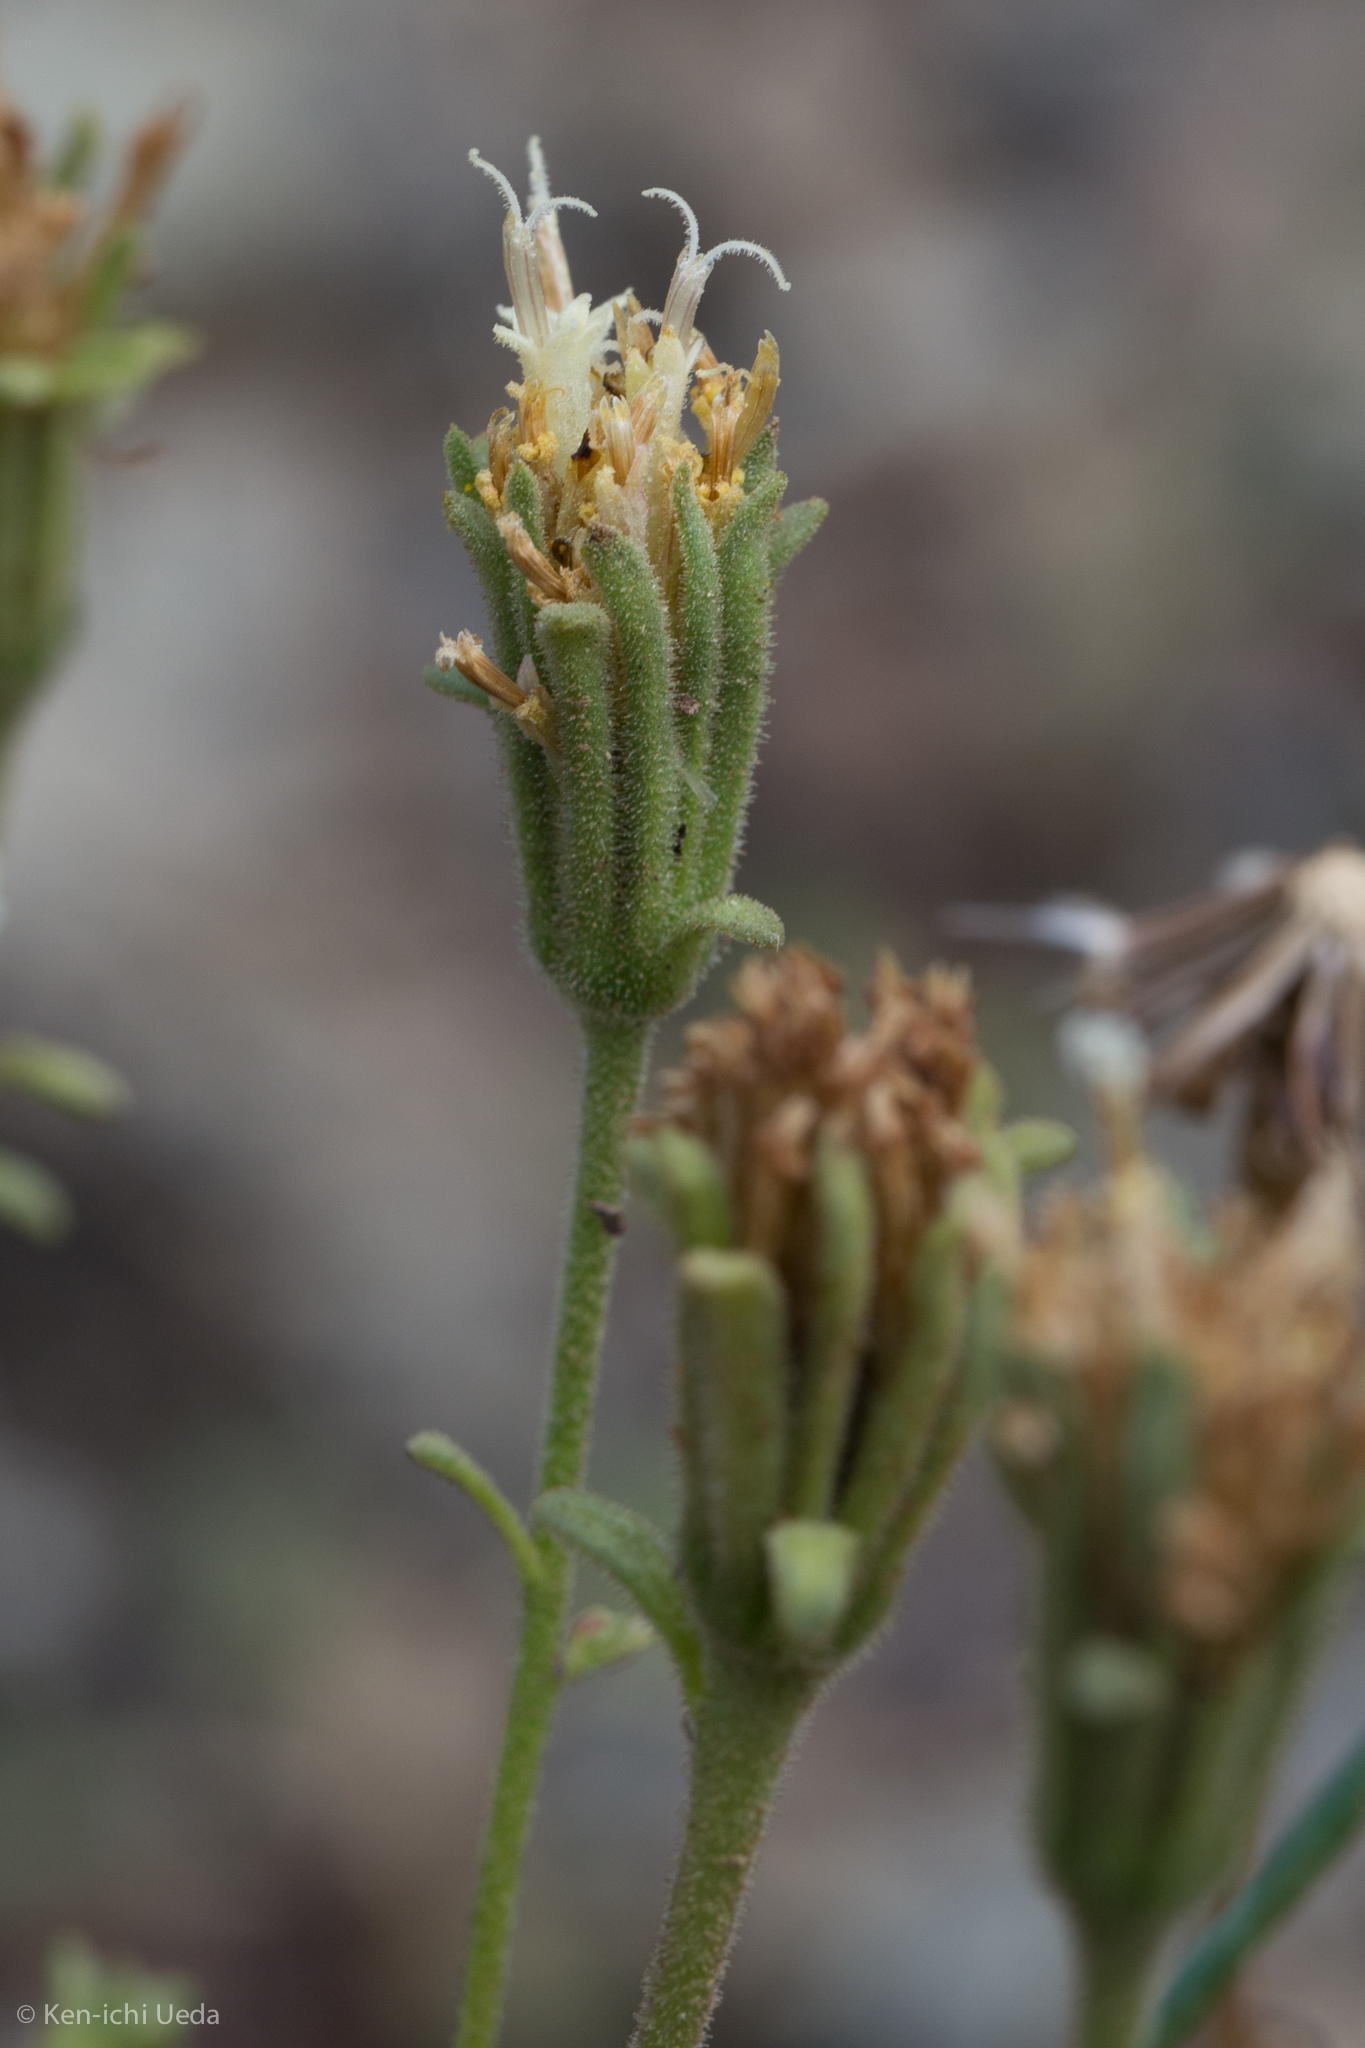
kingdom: Plantae
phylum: Tracheophyta
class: Magnoliopsida
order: Asterales
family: Asteraceae
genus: Chaenactis
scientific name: Chaenactis douglasii
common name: Hoary pincushion
